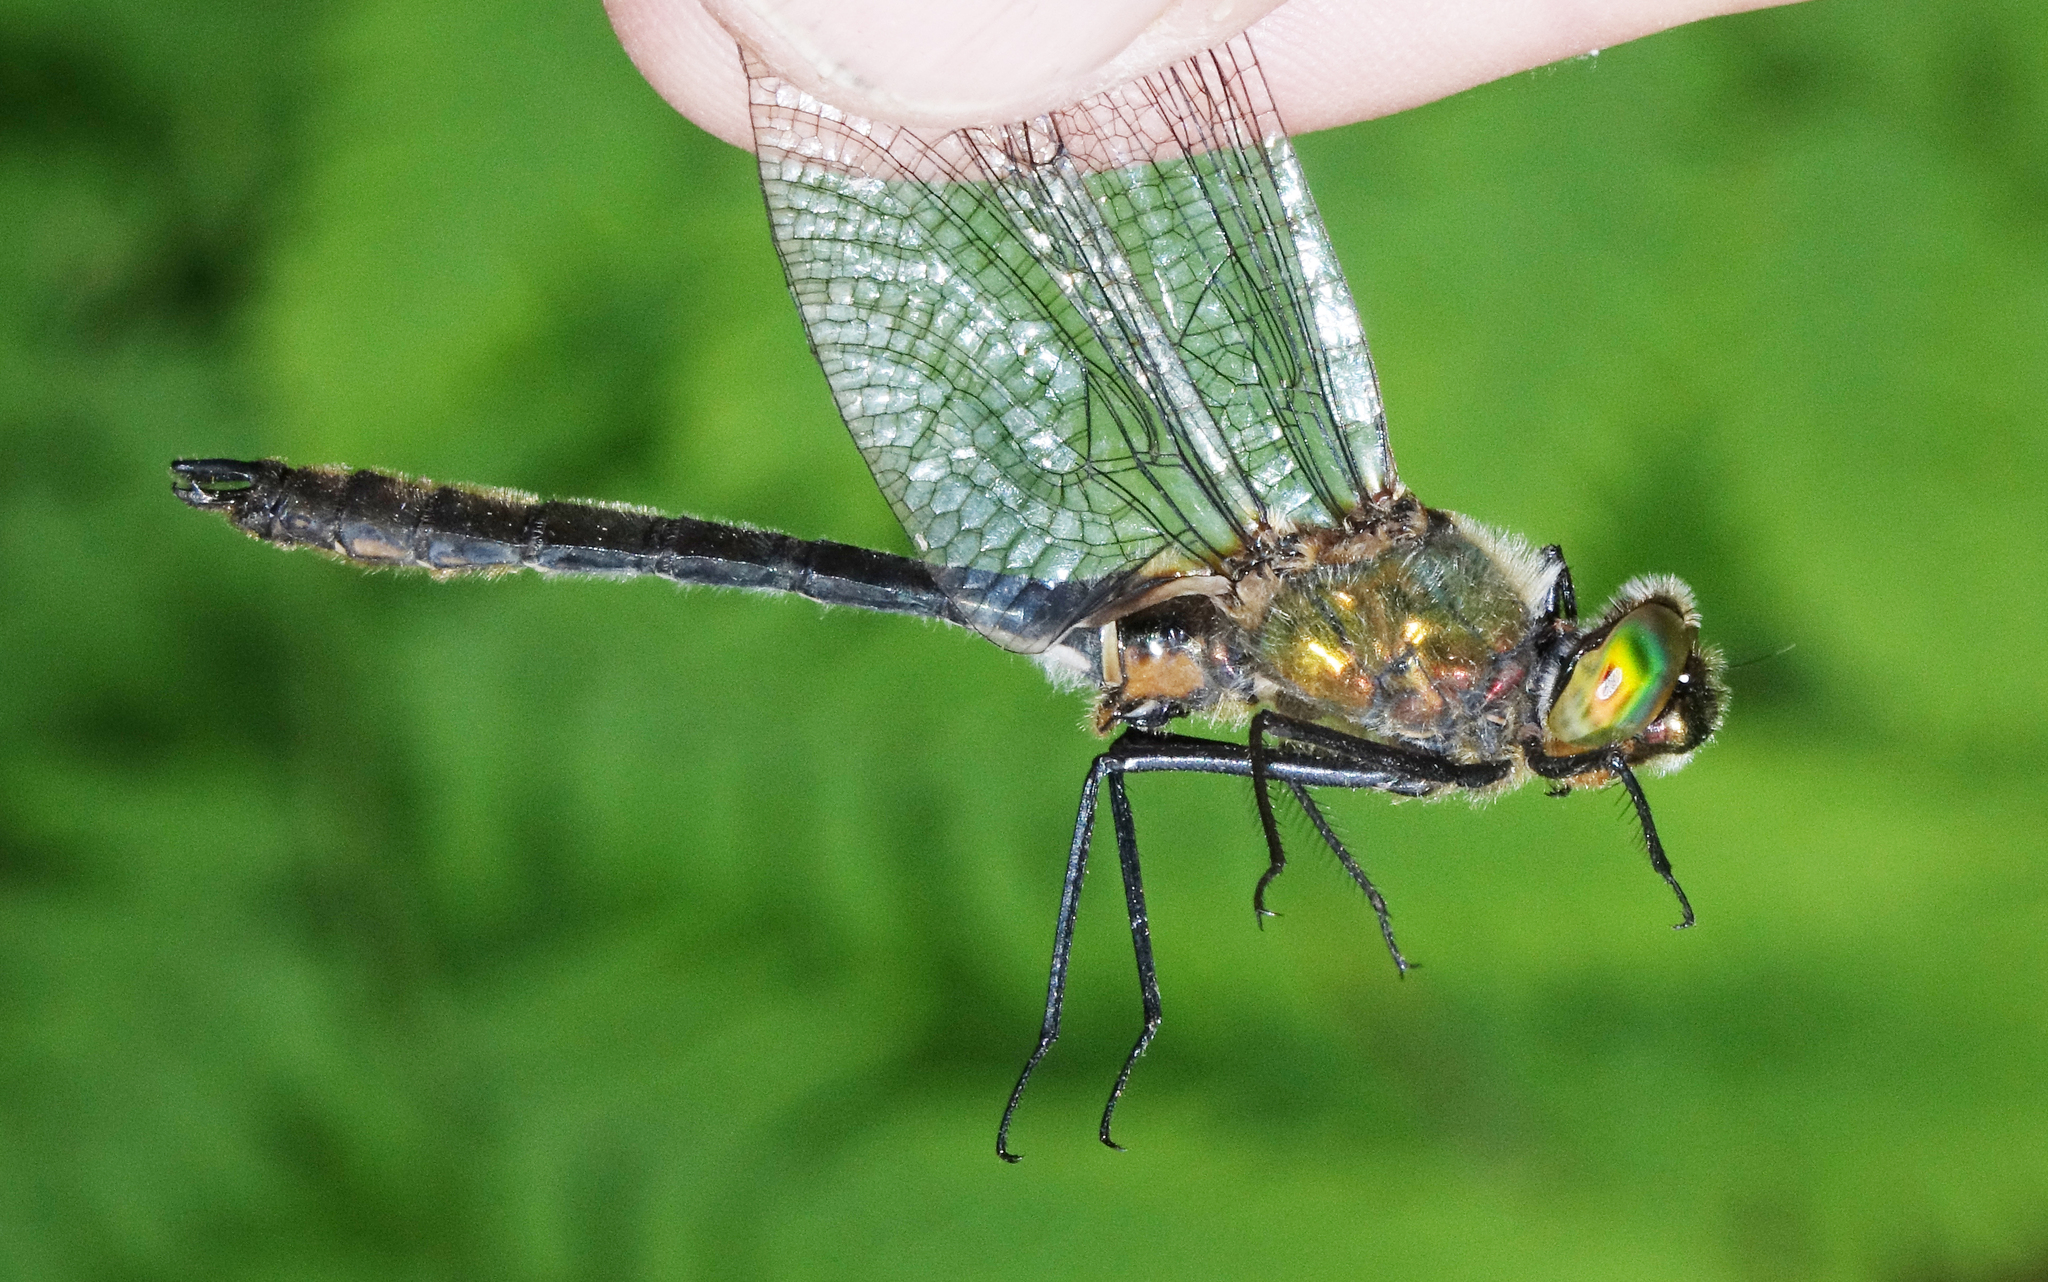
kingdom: Animalia
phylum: Arthropoda
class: Insecta
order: Odonata
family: Corduliidae
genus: Cordulia
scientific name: Cordulia aenea
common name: Downy emerald
